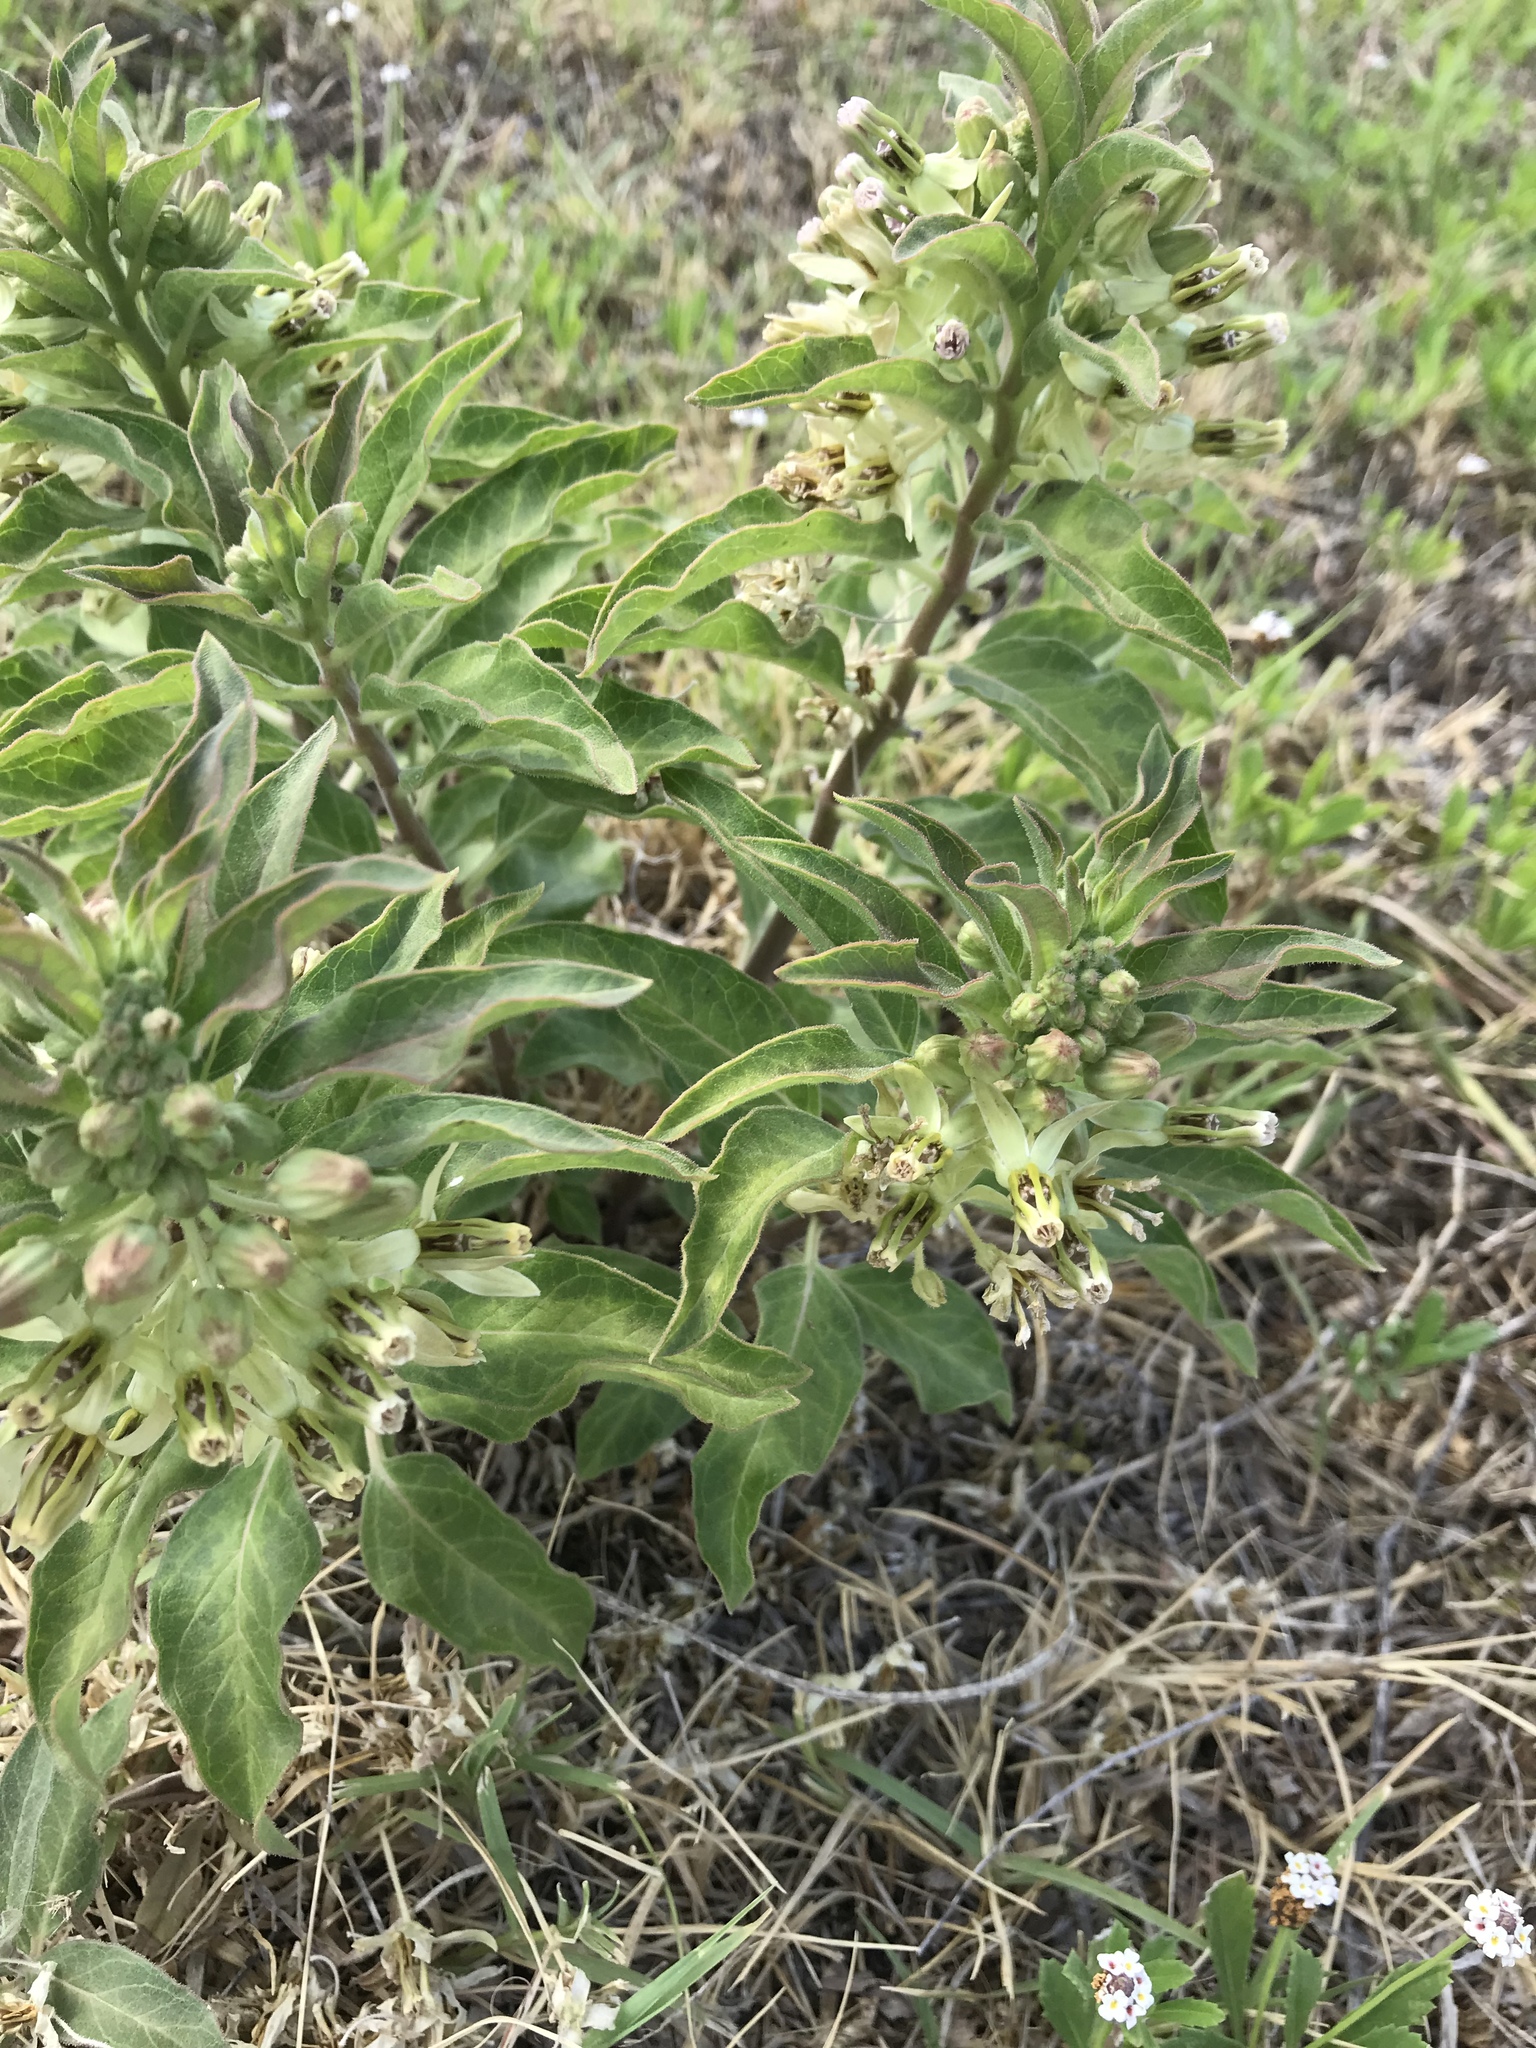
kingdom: Plantae
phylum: Tracheophyta
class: Magnoliopsida
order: Gentianales
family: Apocynaceae
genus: Asclepias
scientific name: Asclepias oenotheroides
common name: Zizotes milkweed
